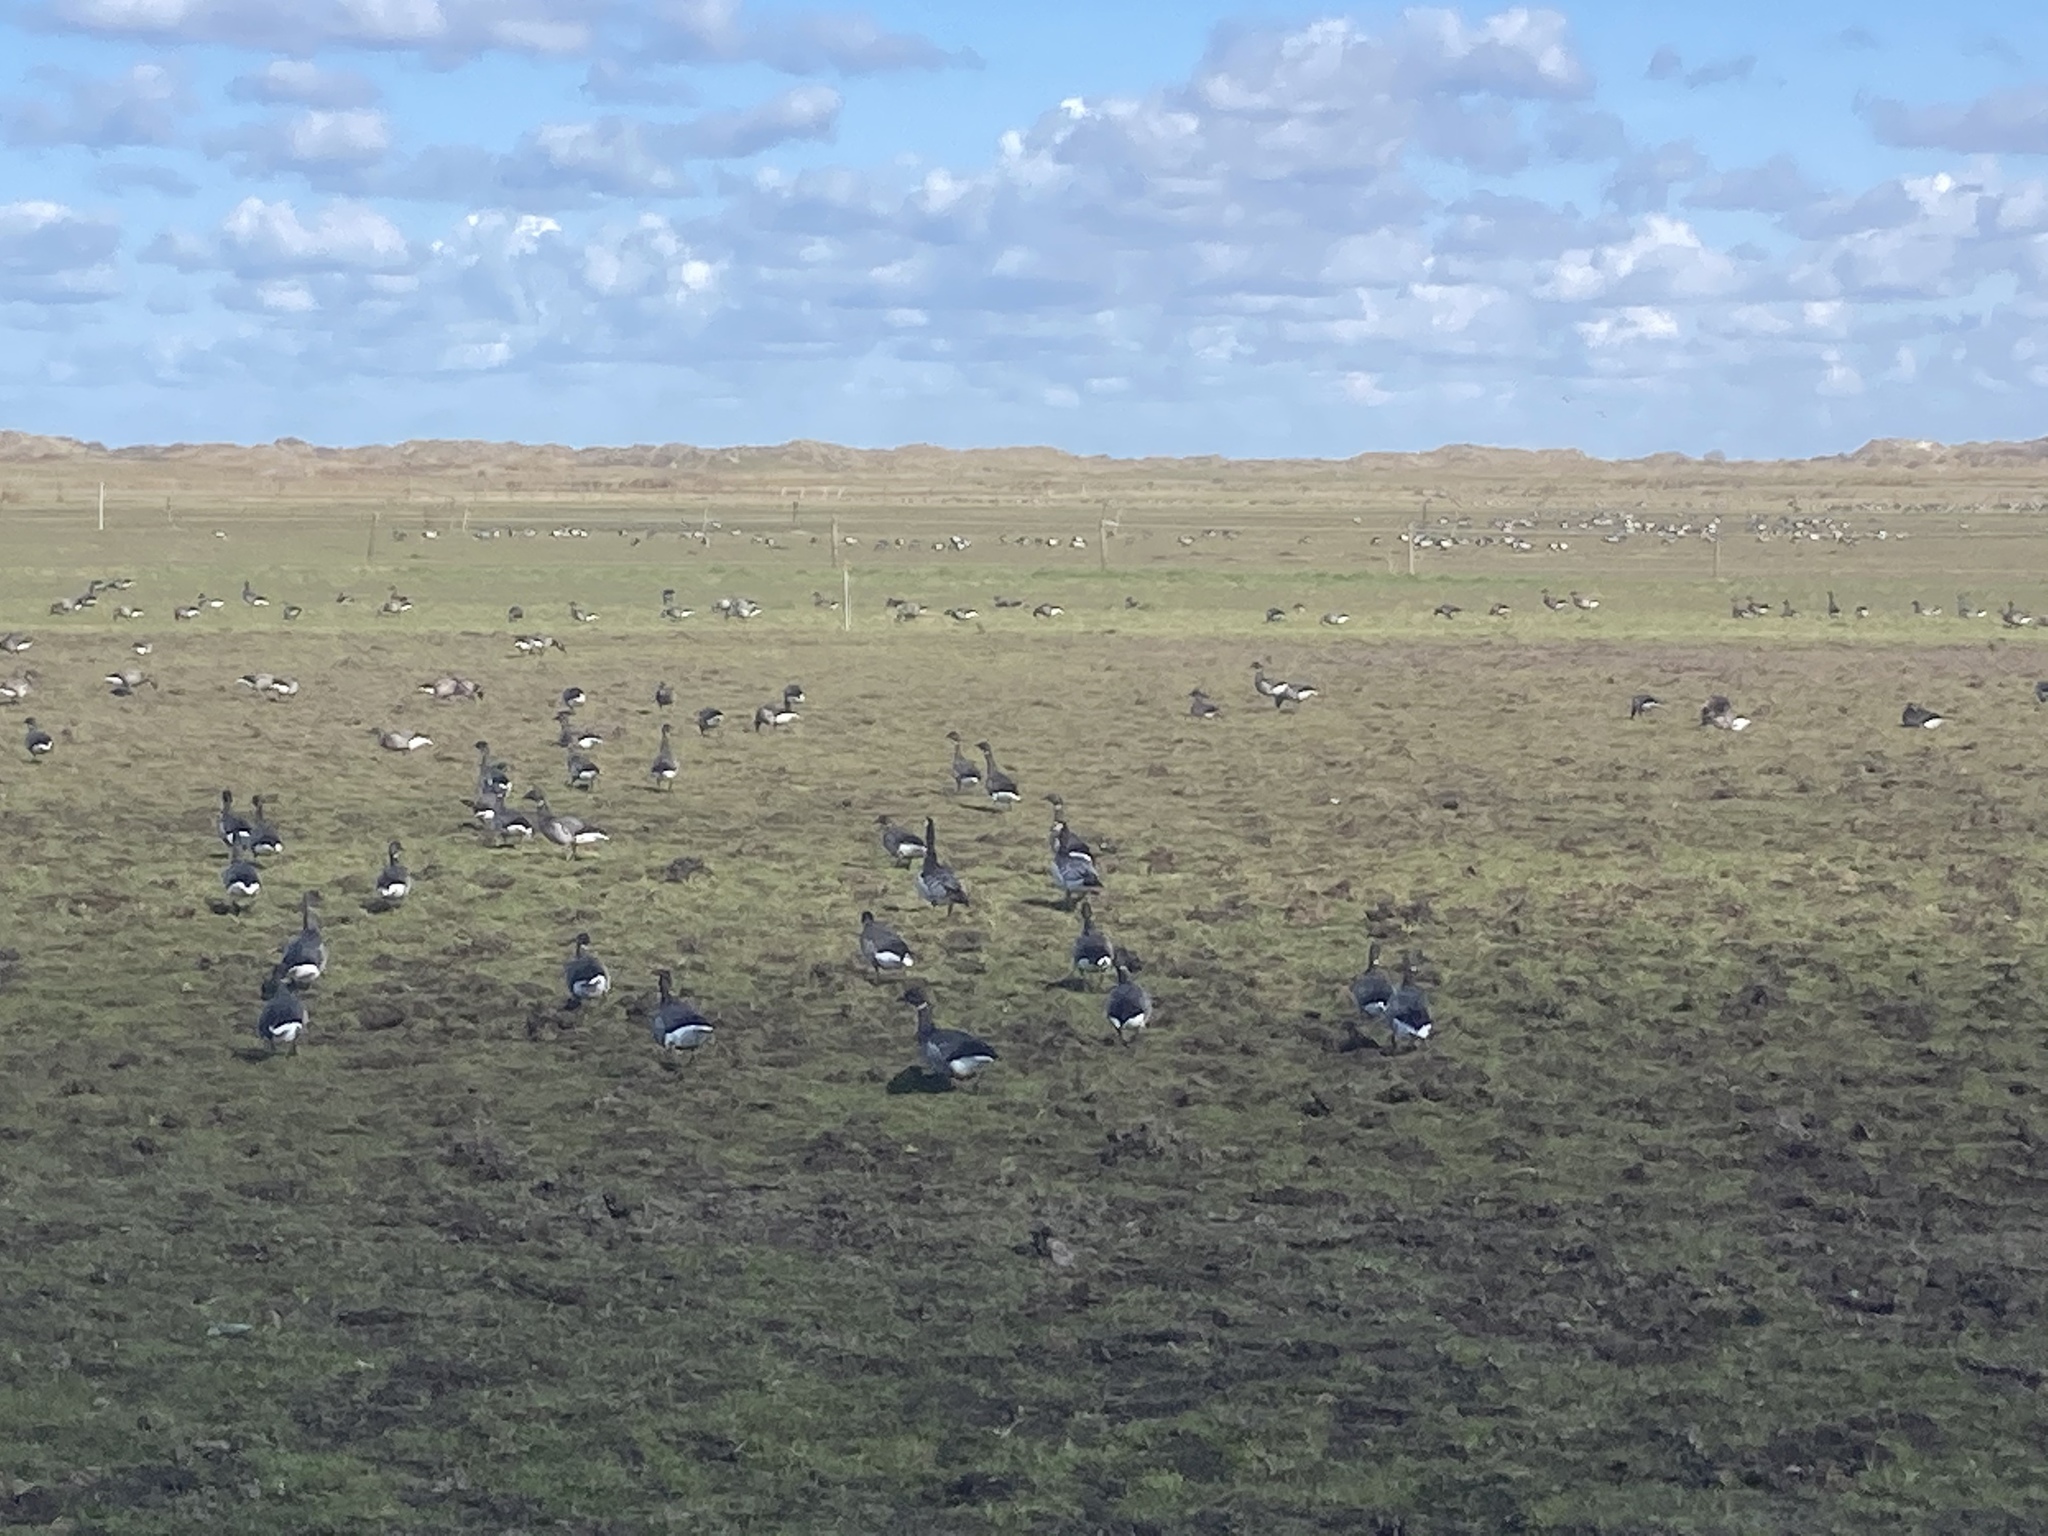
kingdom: Animalia
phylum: Chordata
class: Aves
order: Anseriformes
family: Anatidae
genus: Branta
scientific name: Branta bernicla
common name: Brant goose
